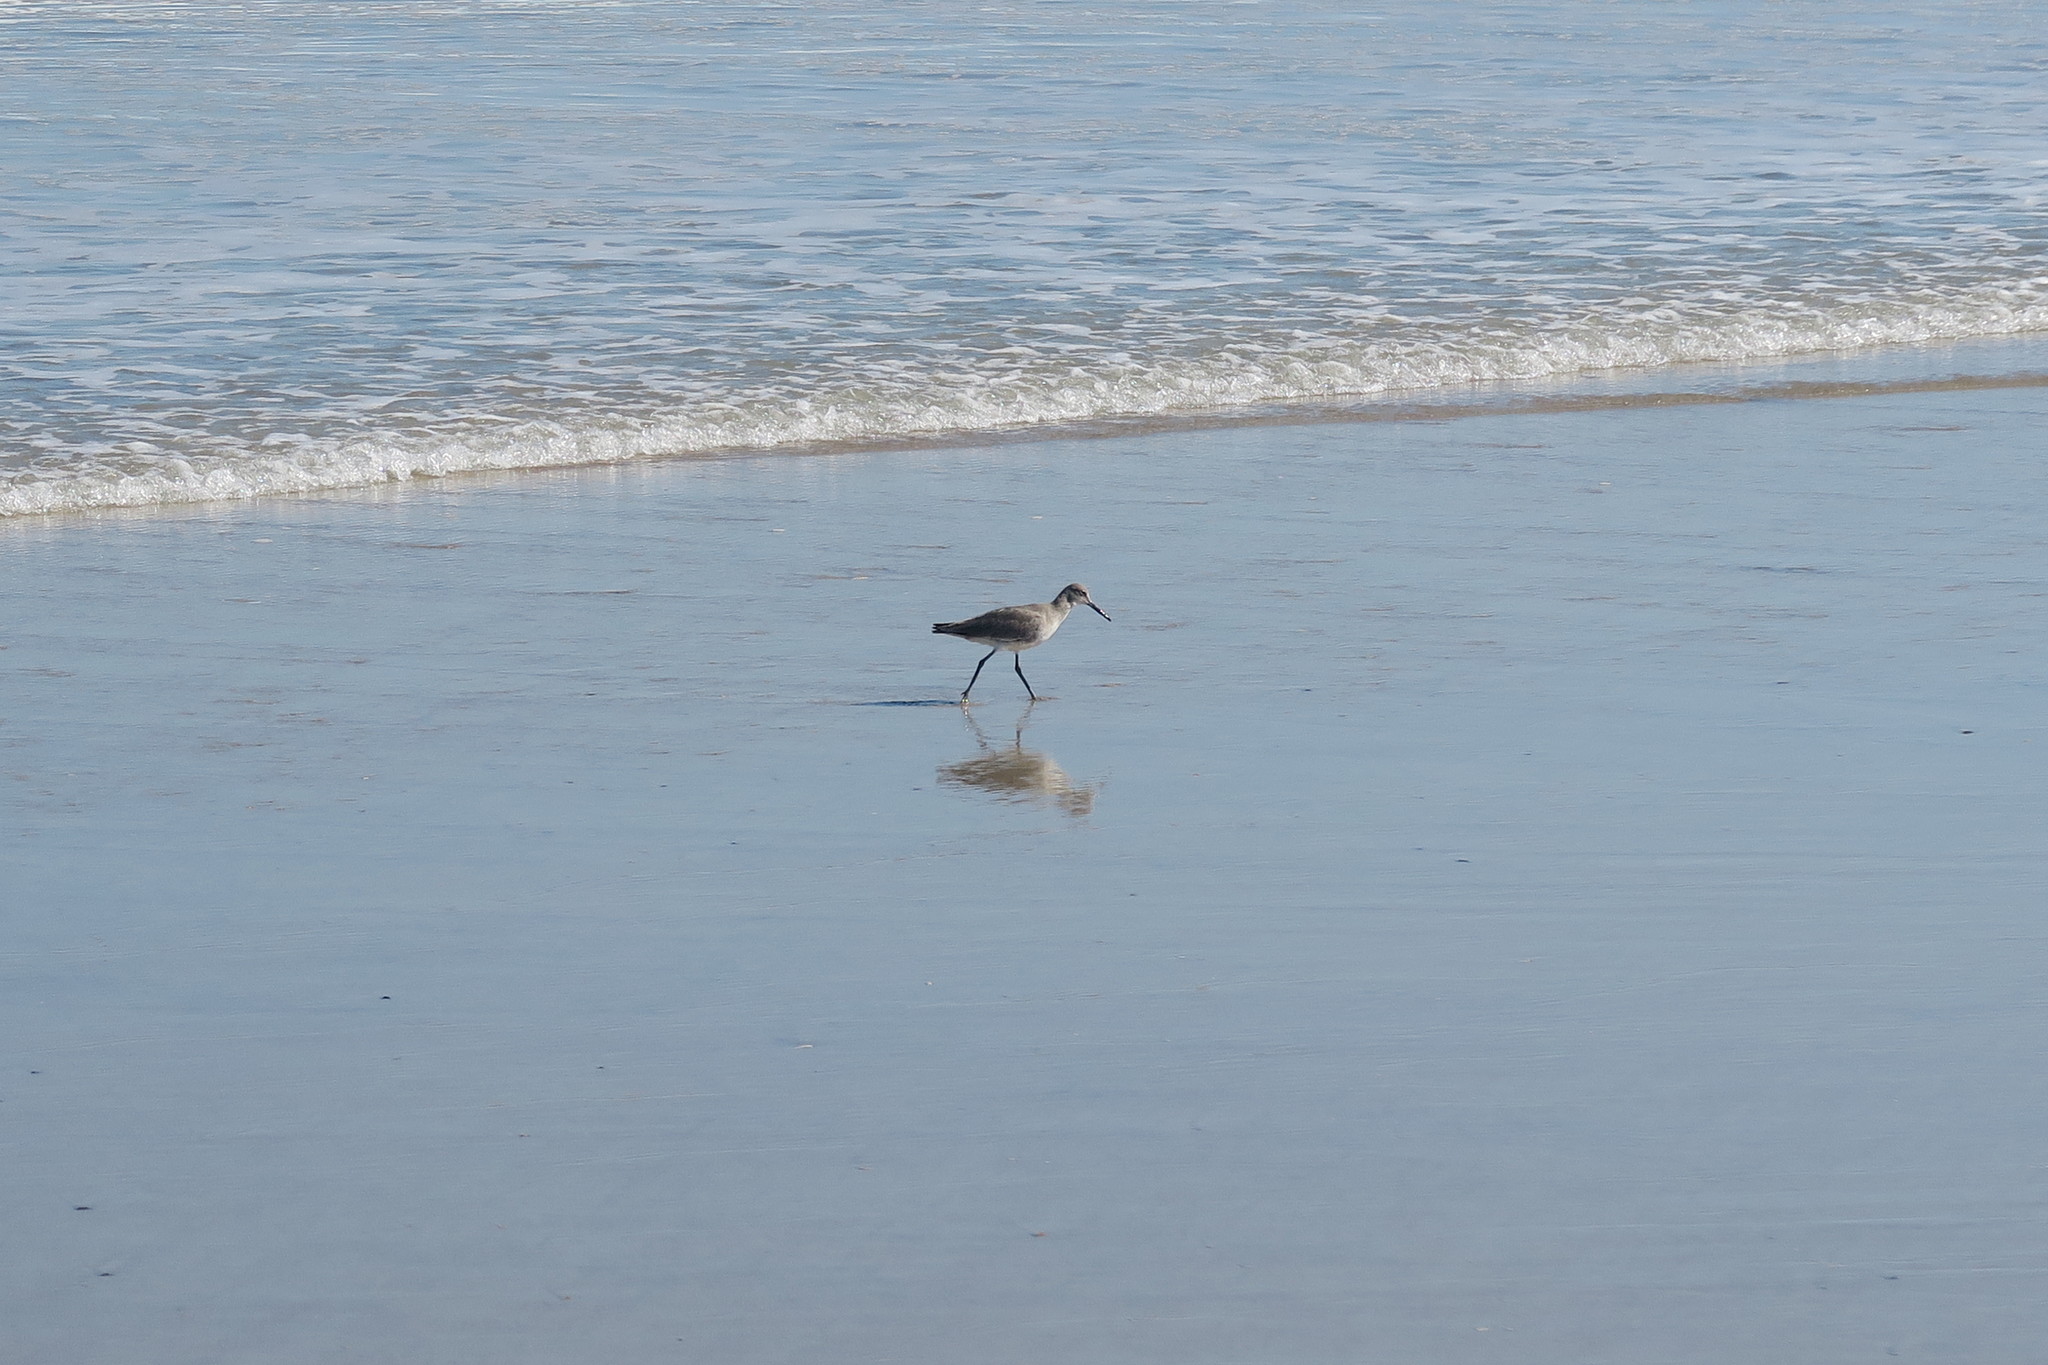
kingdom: Animalia
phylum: Chordata
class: Aves
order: Charadriiformes
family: Scolopacidae
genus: Tringa
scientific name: Tringa semipalmata
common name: Willet
